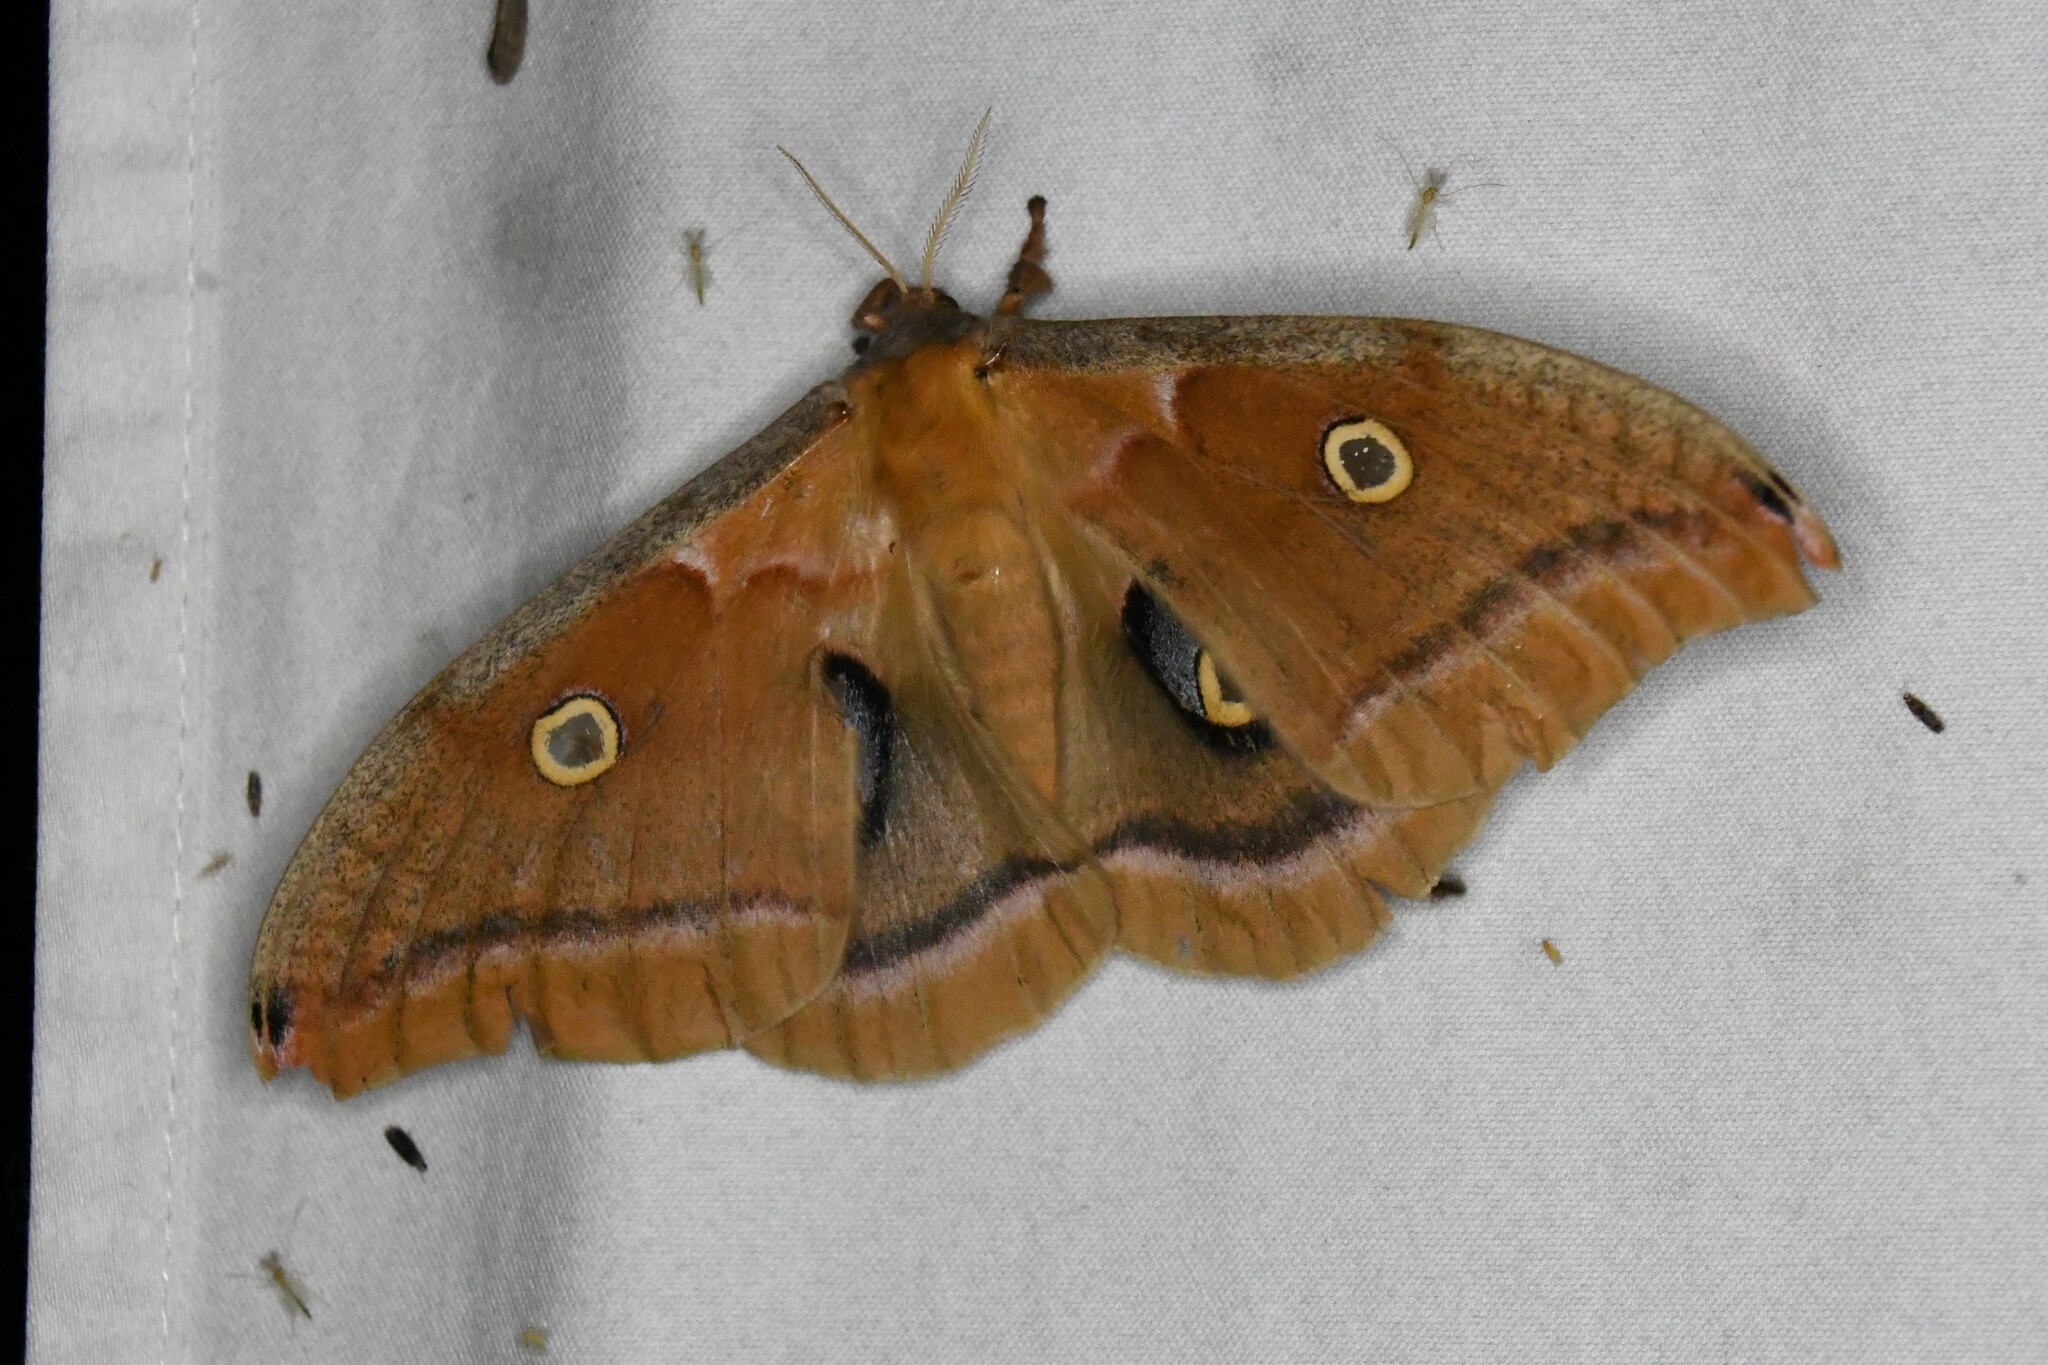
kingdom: Animalia
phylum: Arthropoda
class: Insecta
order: Lepidoptera
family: Saturniidae
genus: Antheraea
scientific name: Antheraea polyphemus
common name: Polyphemus moth
